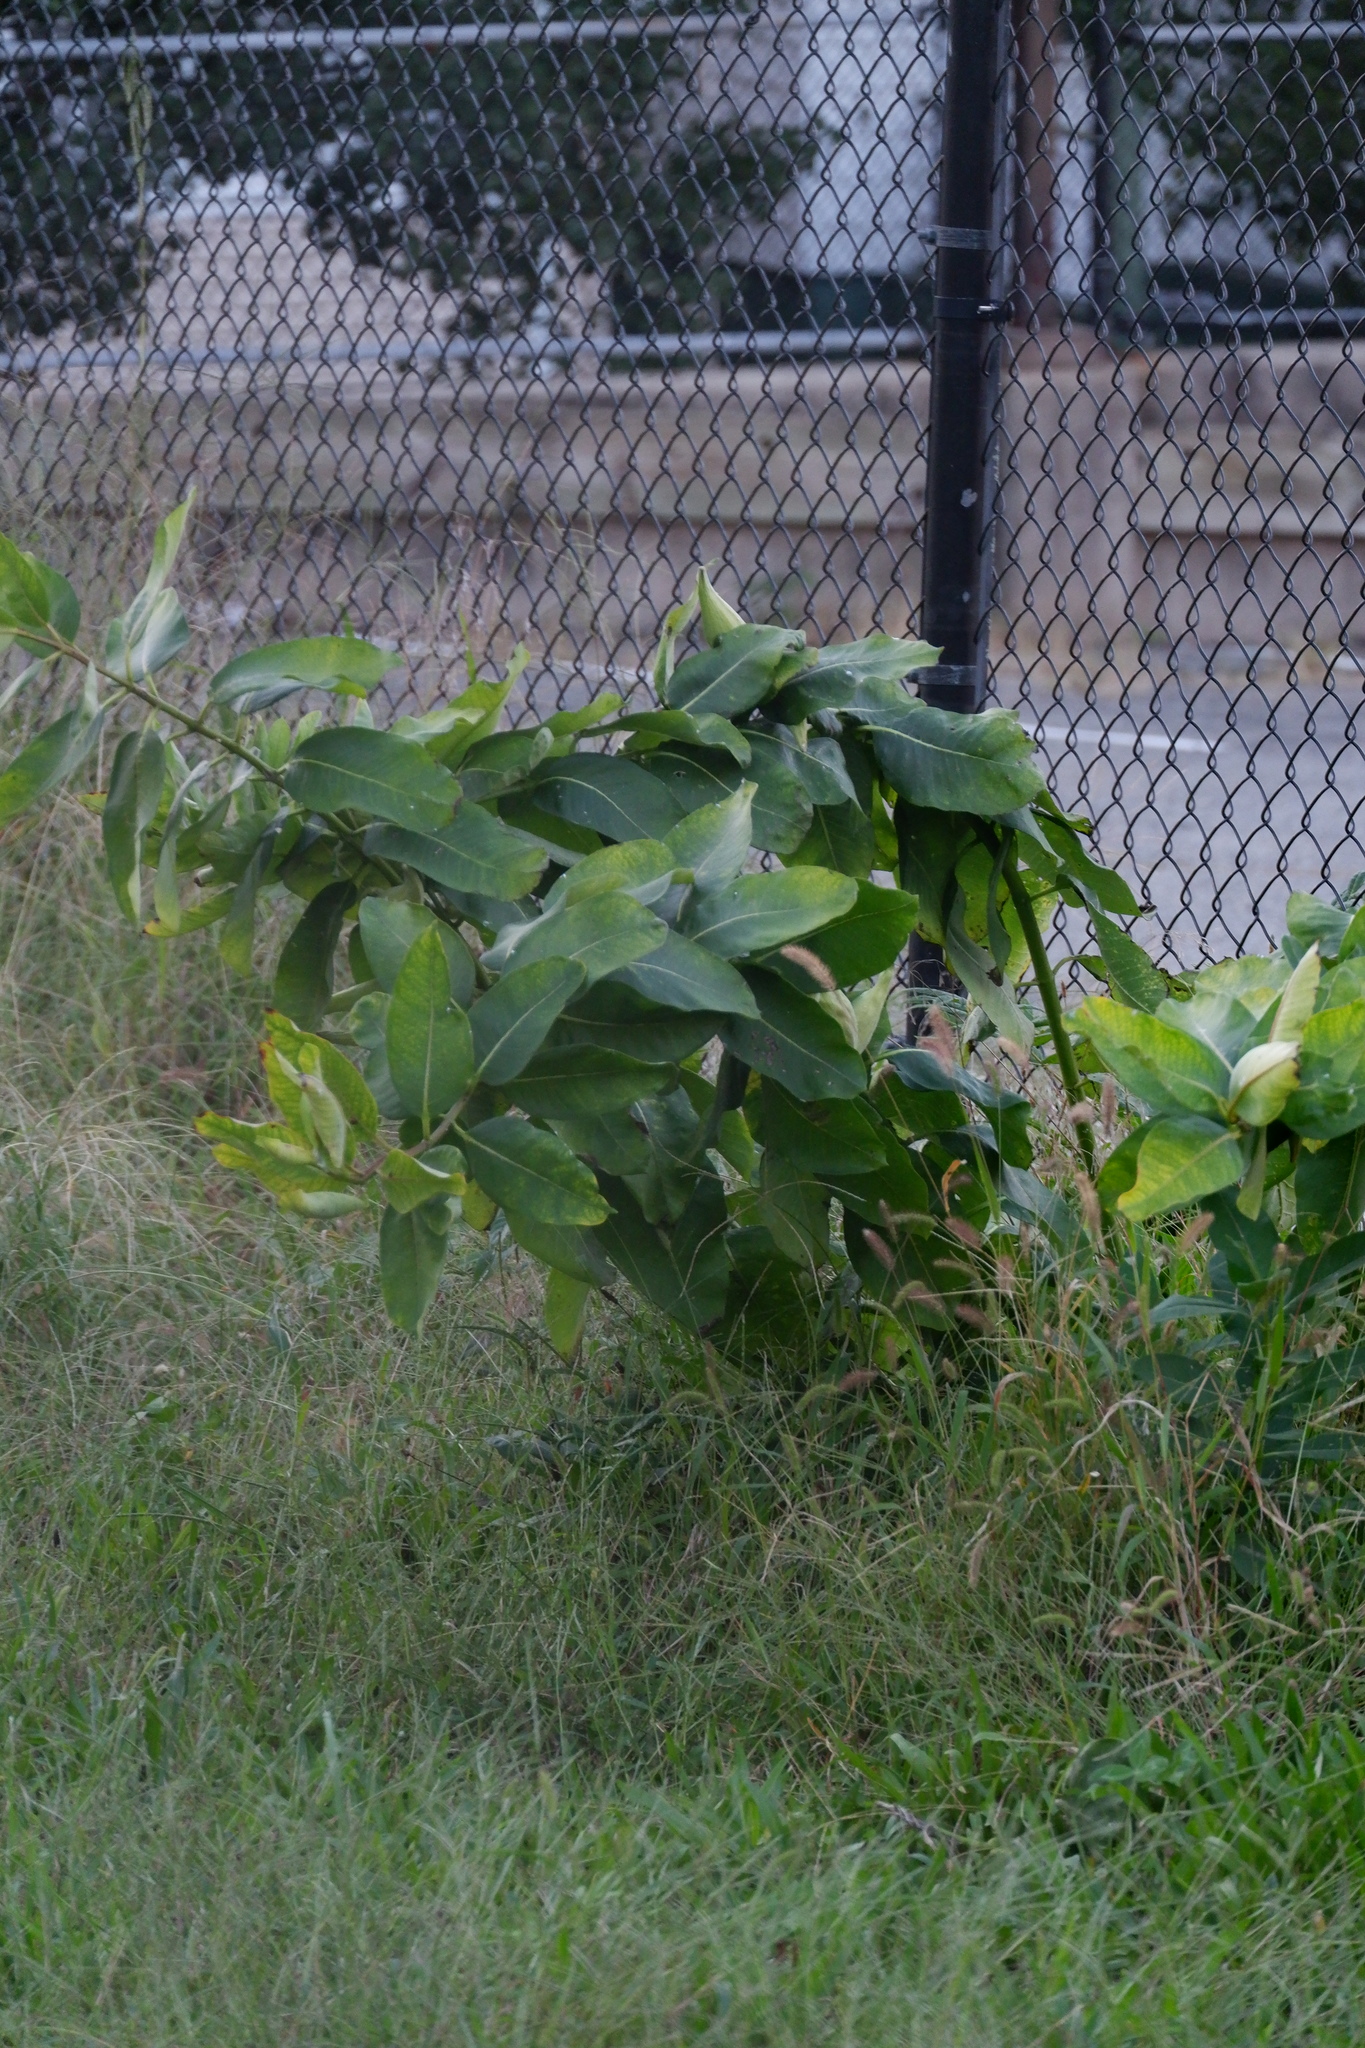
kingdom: Plantae
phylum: Tracheophyta
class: Magnoliopsida
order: Gentianales
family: Apocynaceae
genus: Asclepias
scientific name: Asclepias syriaca
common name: Common milkweed
